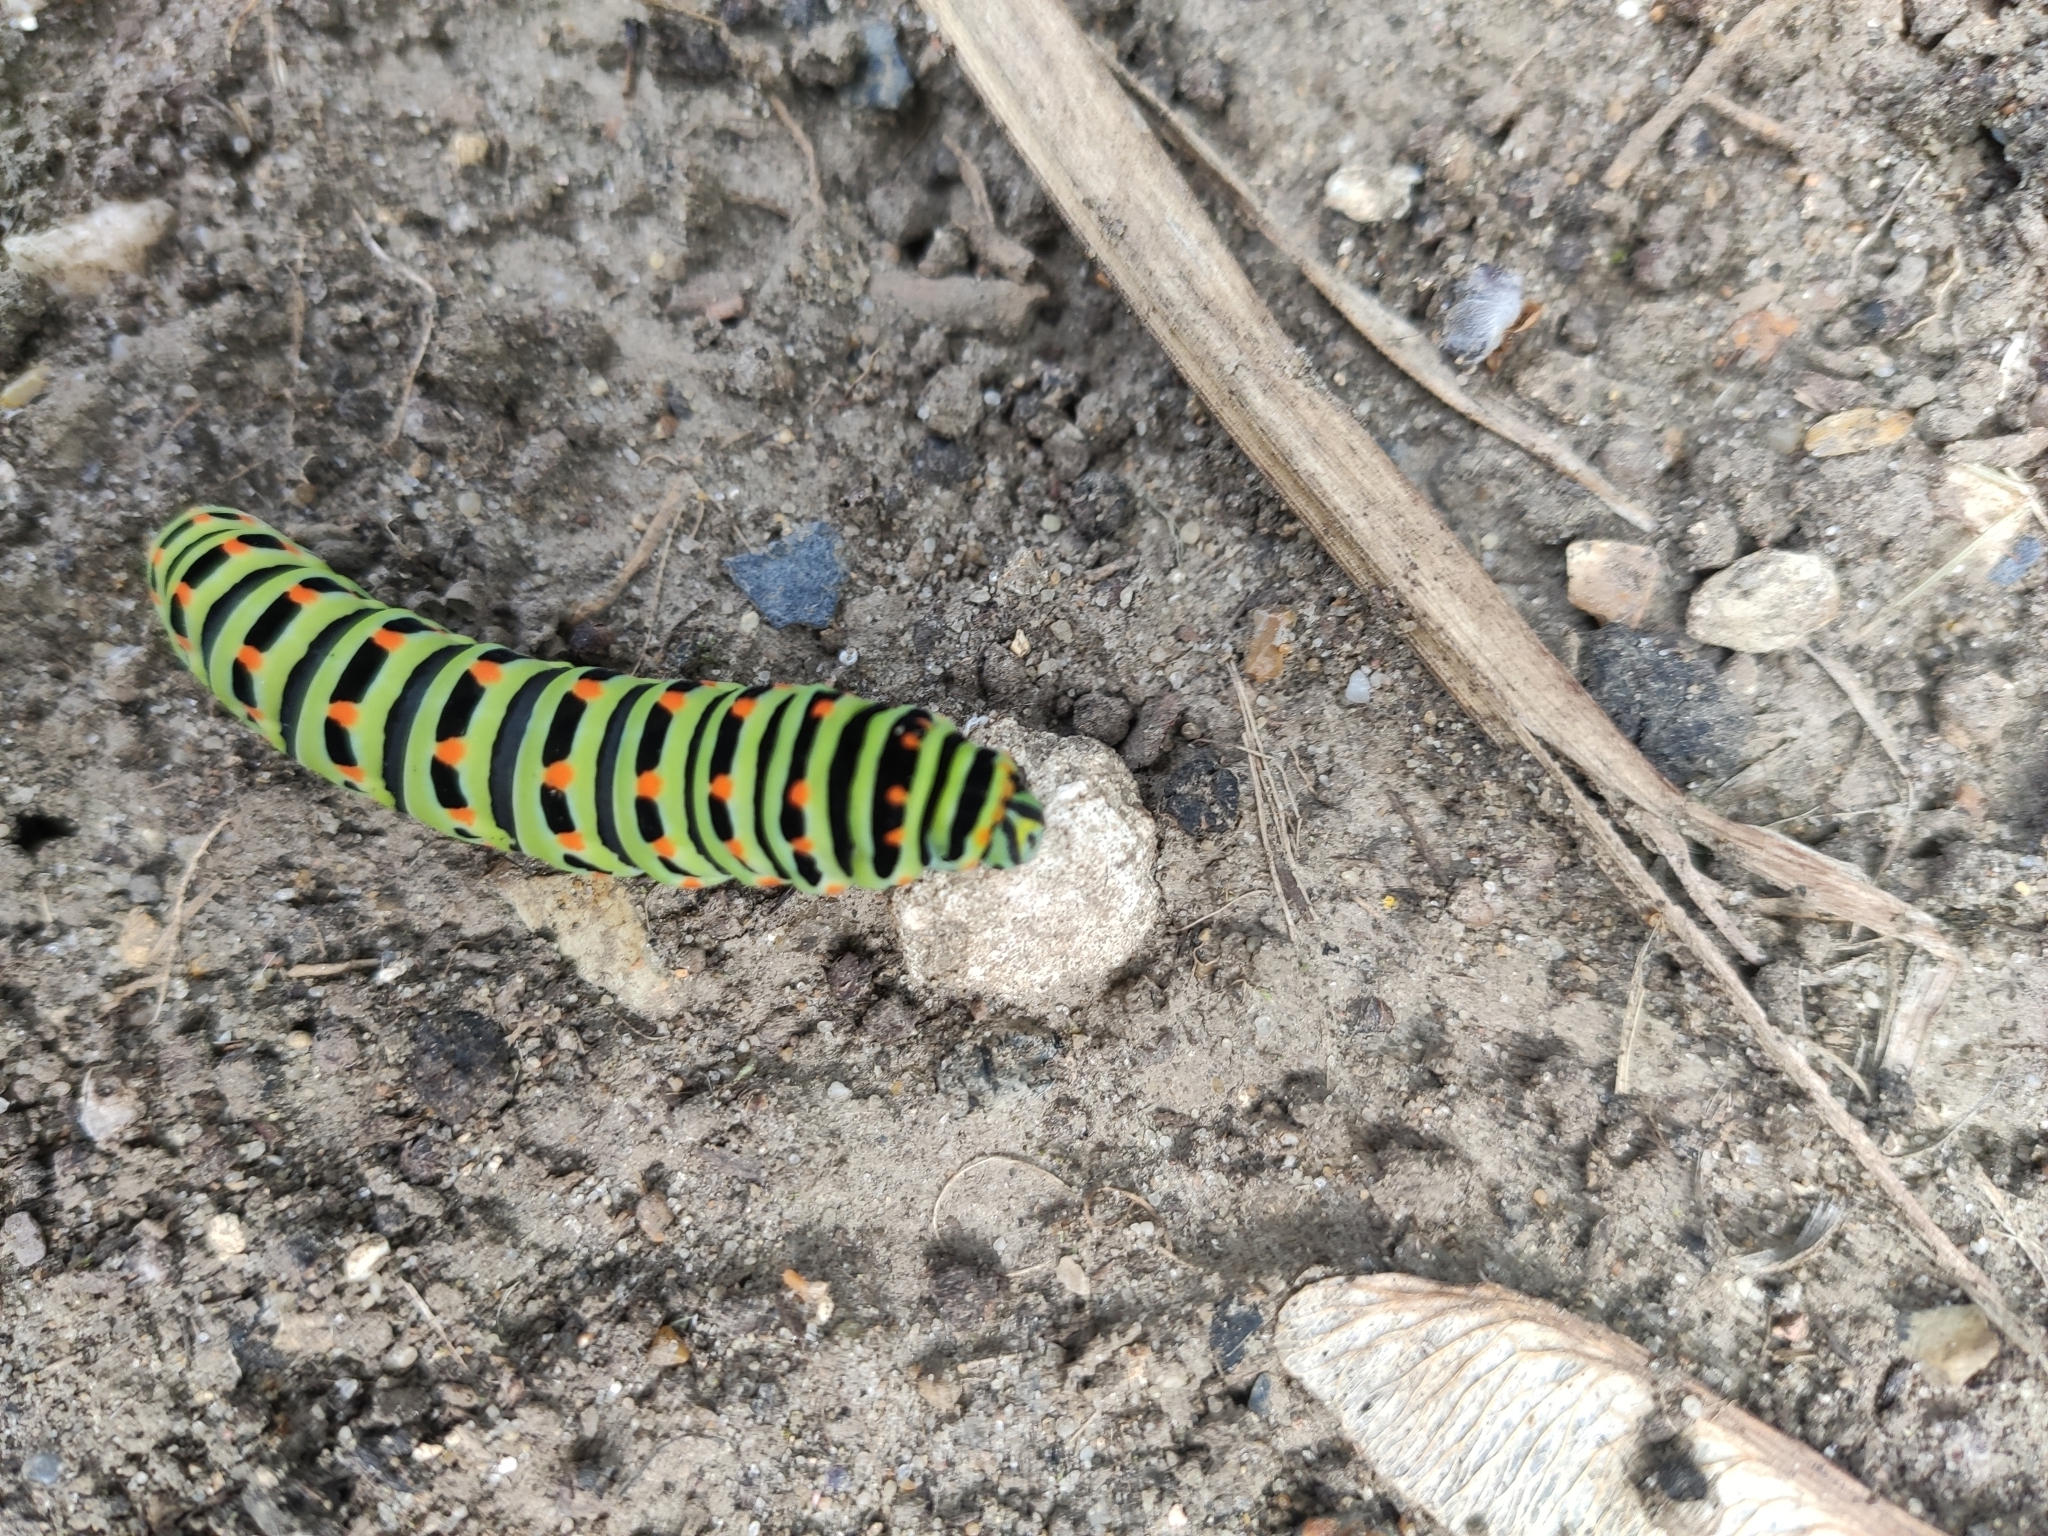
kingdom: Animalia
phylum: Arthropoda
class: Insecta
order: Lepidoptera
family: Papilionidae
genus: Papilio
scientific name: Papilio machaon
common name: Swallowtail
